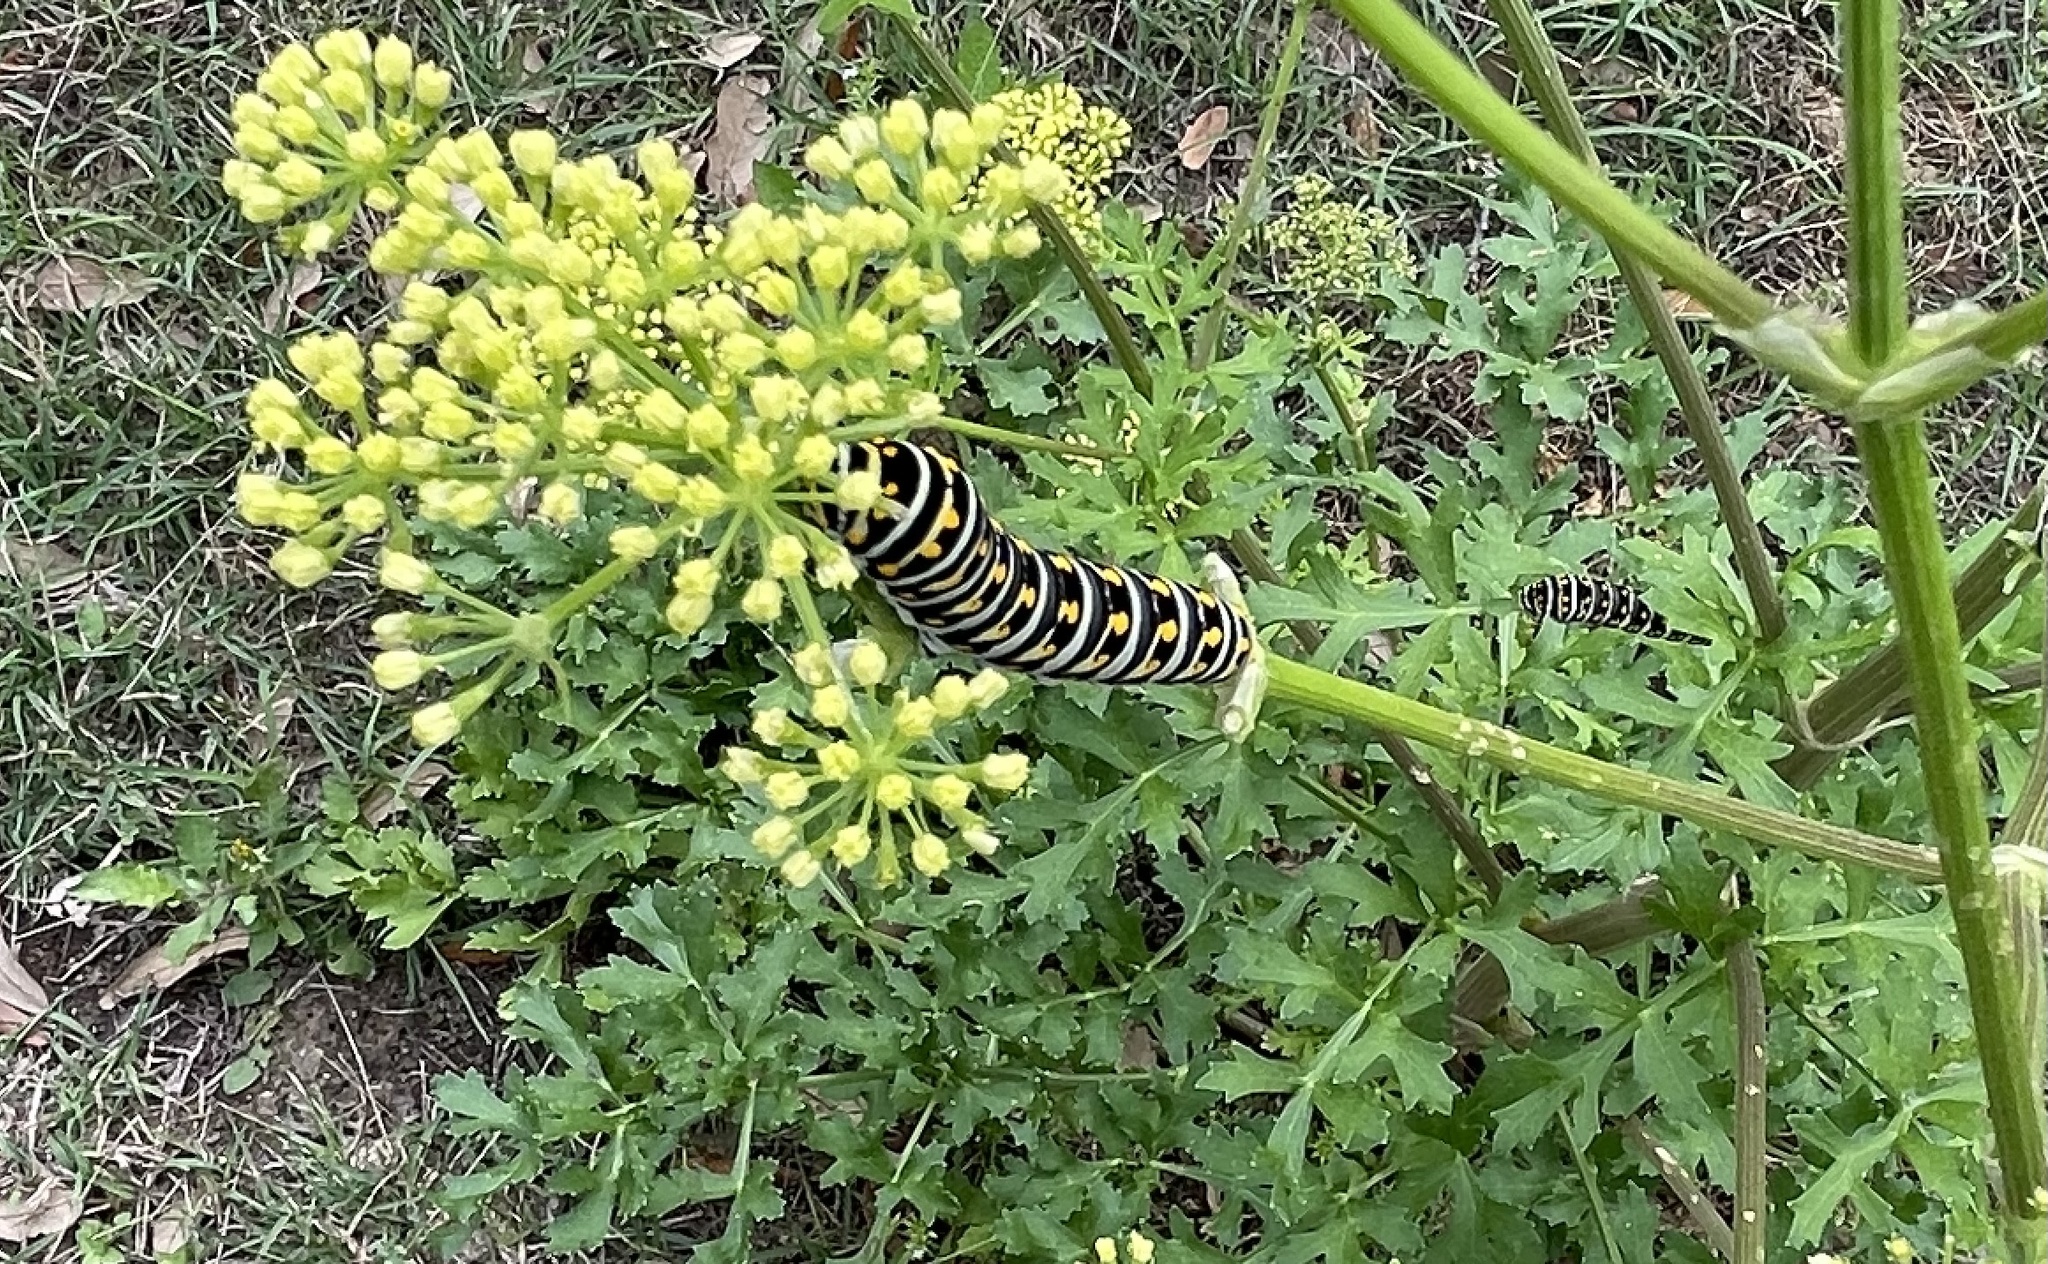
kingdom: Animalia
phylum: Arthropoda
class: Insecta
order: Lepidoptera
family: Papilionidae
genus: Papilio
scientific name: Papilio polyxenes
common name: Black swallowtail
